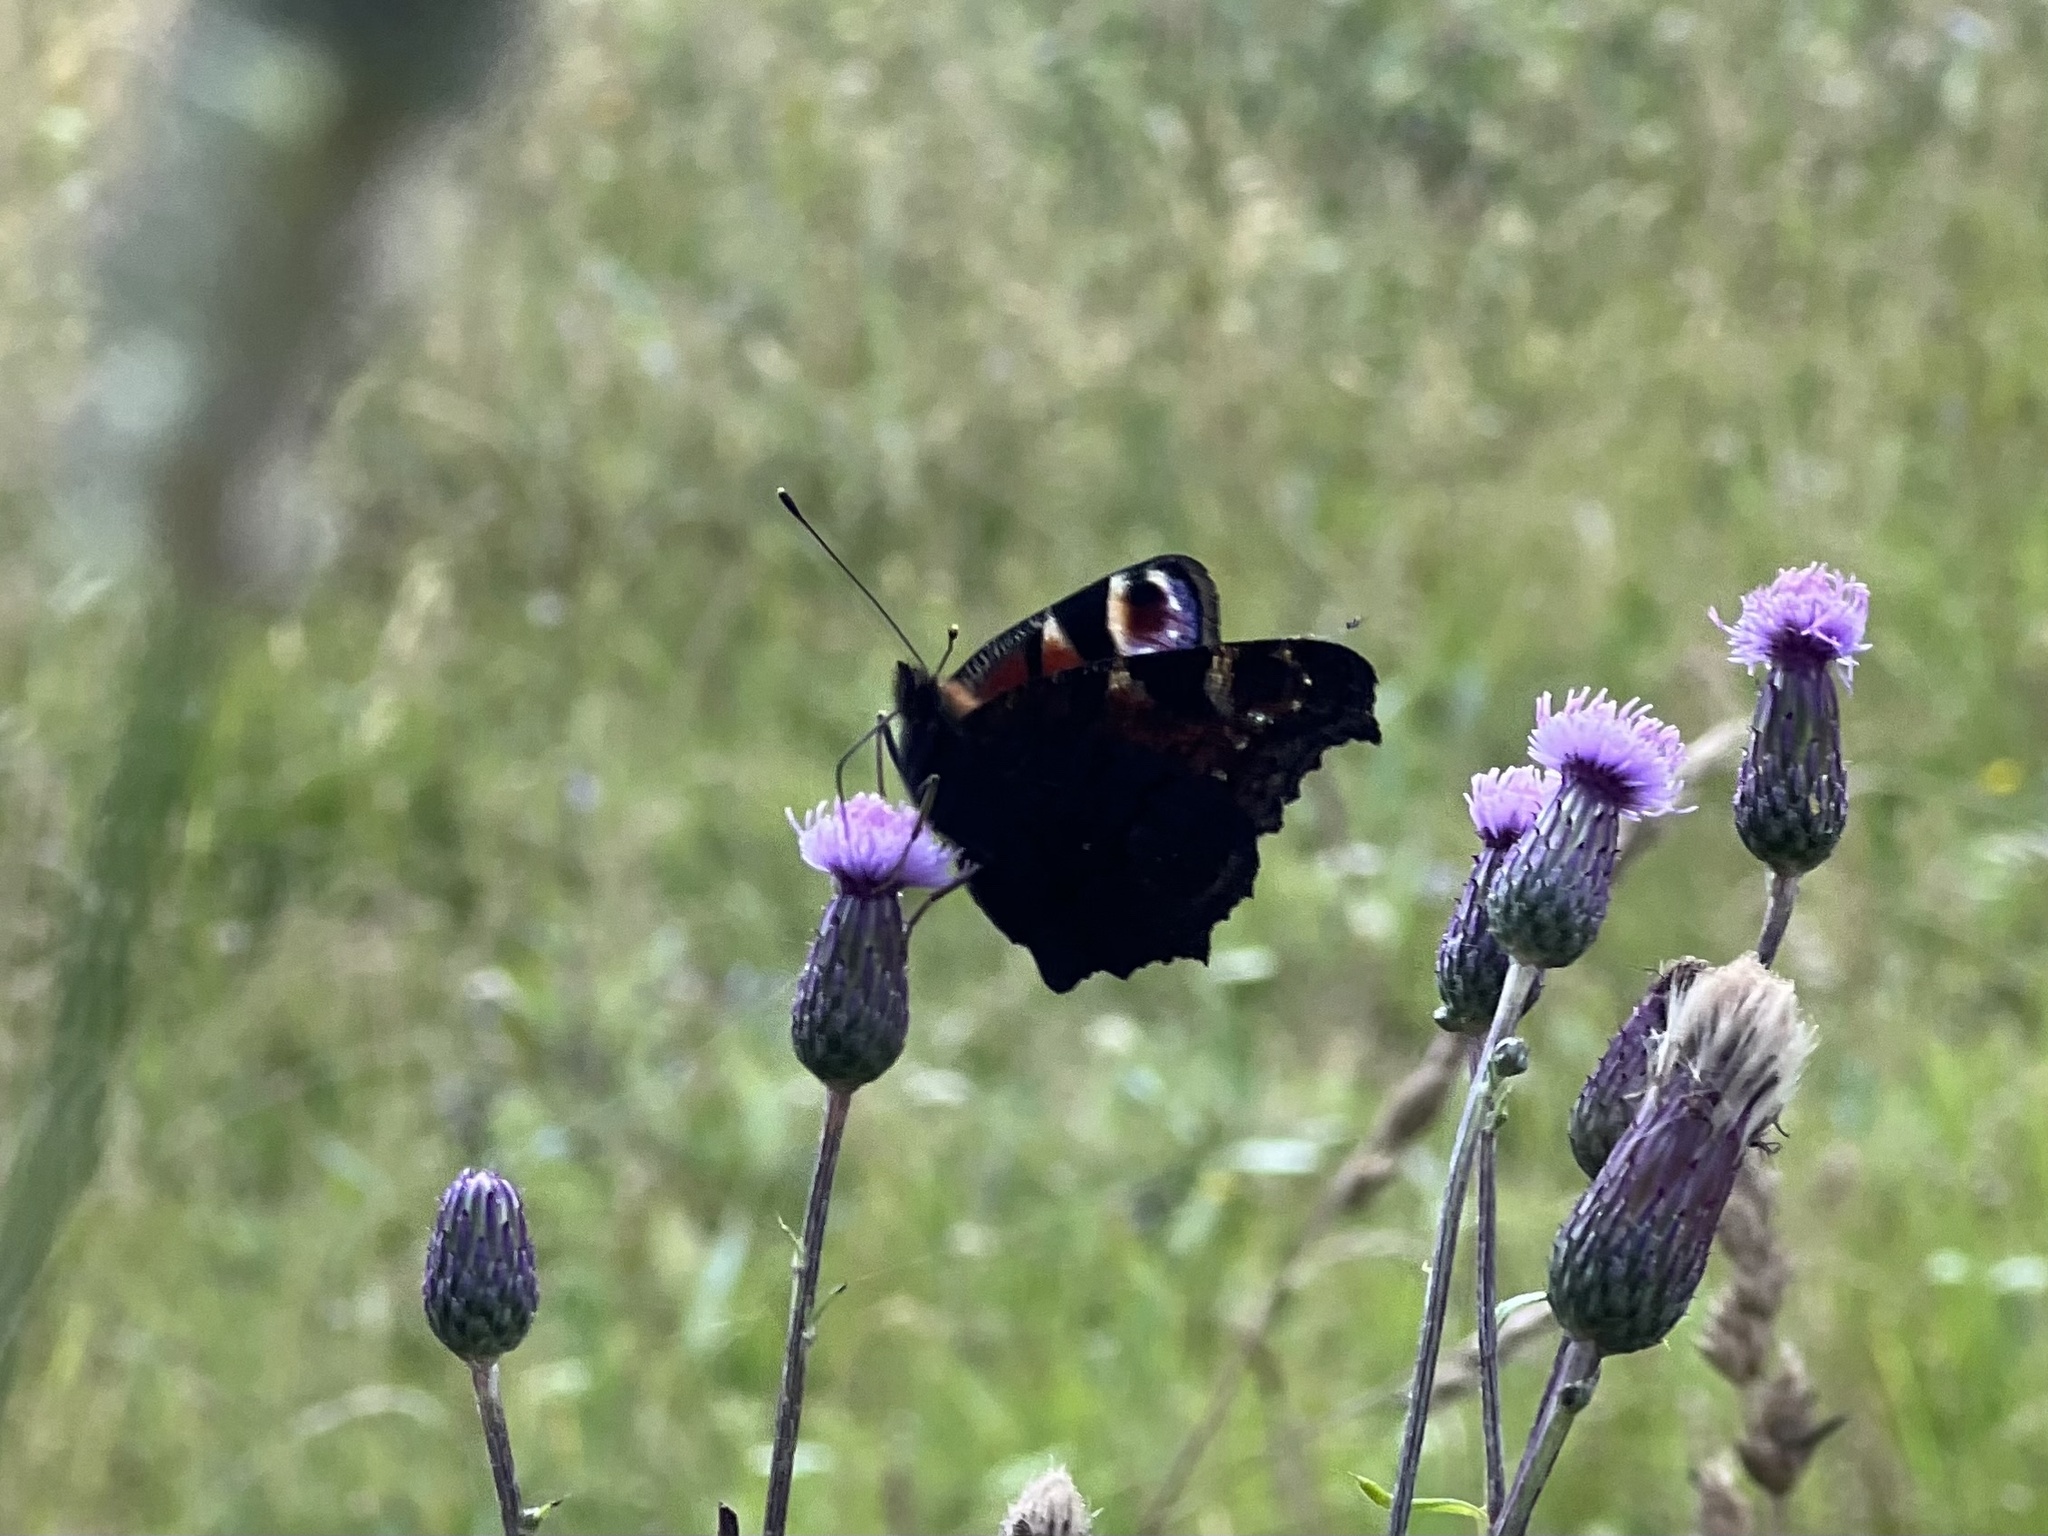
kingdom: Animalia
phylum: Arthropoda
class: Insecta
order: Lepidoptera
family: Nymphalidae
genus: Aglais
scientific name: Aglais io
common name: Peacock
